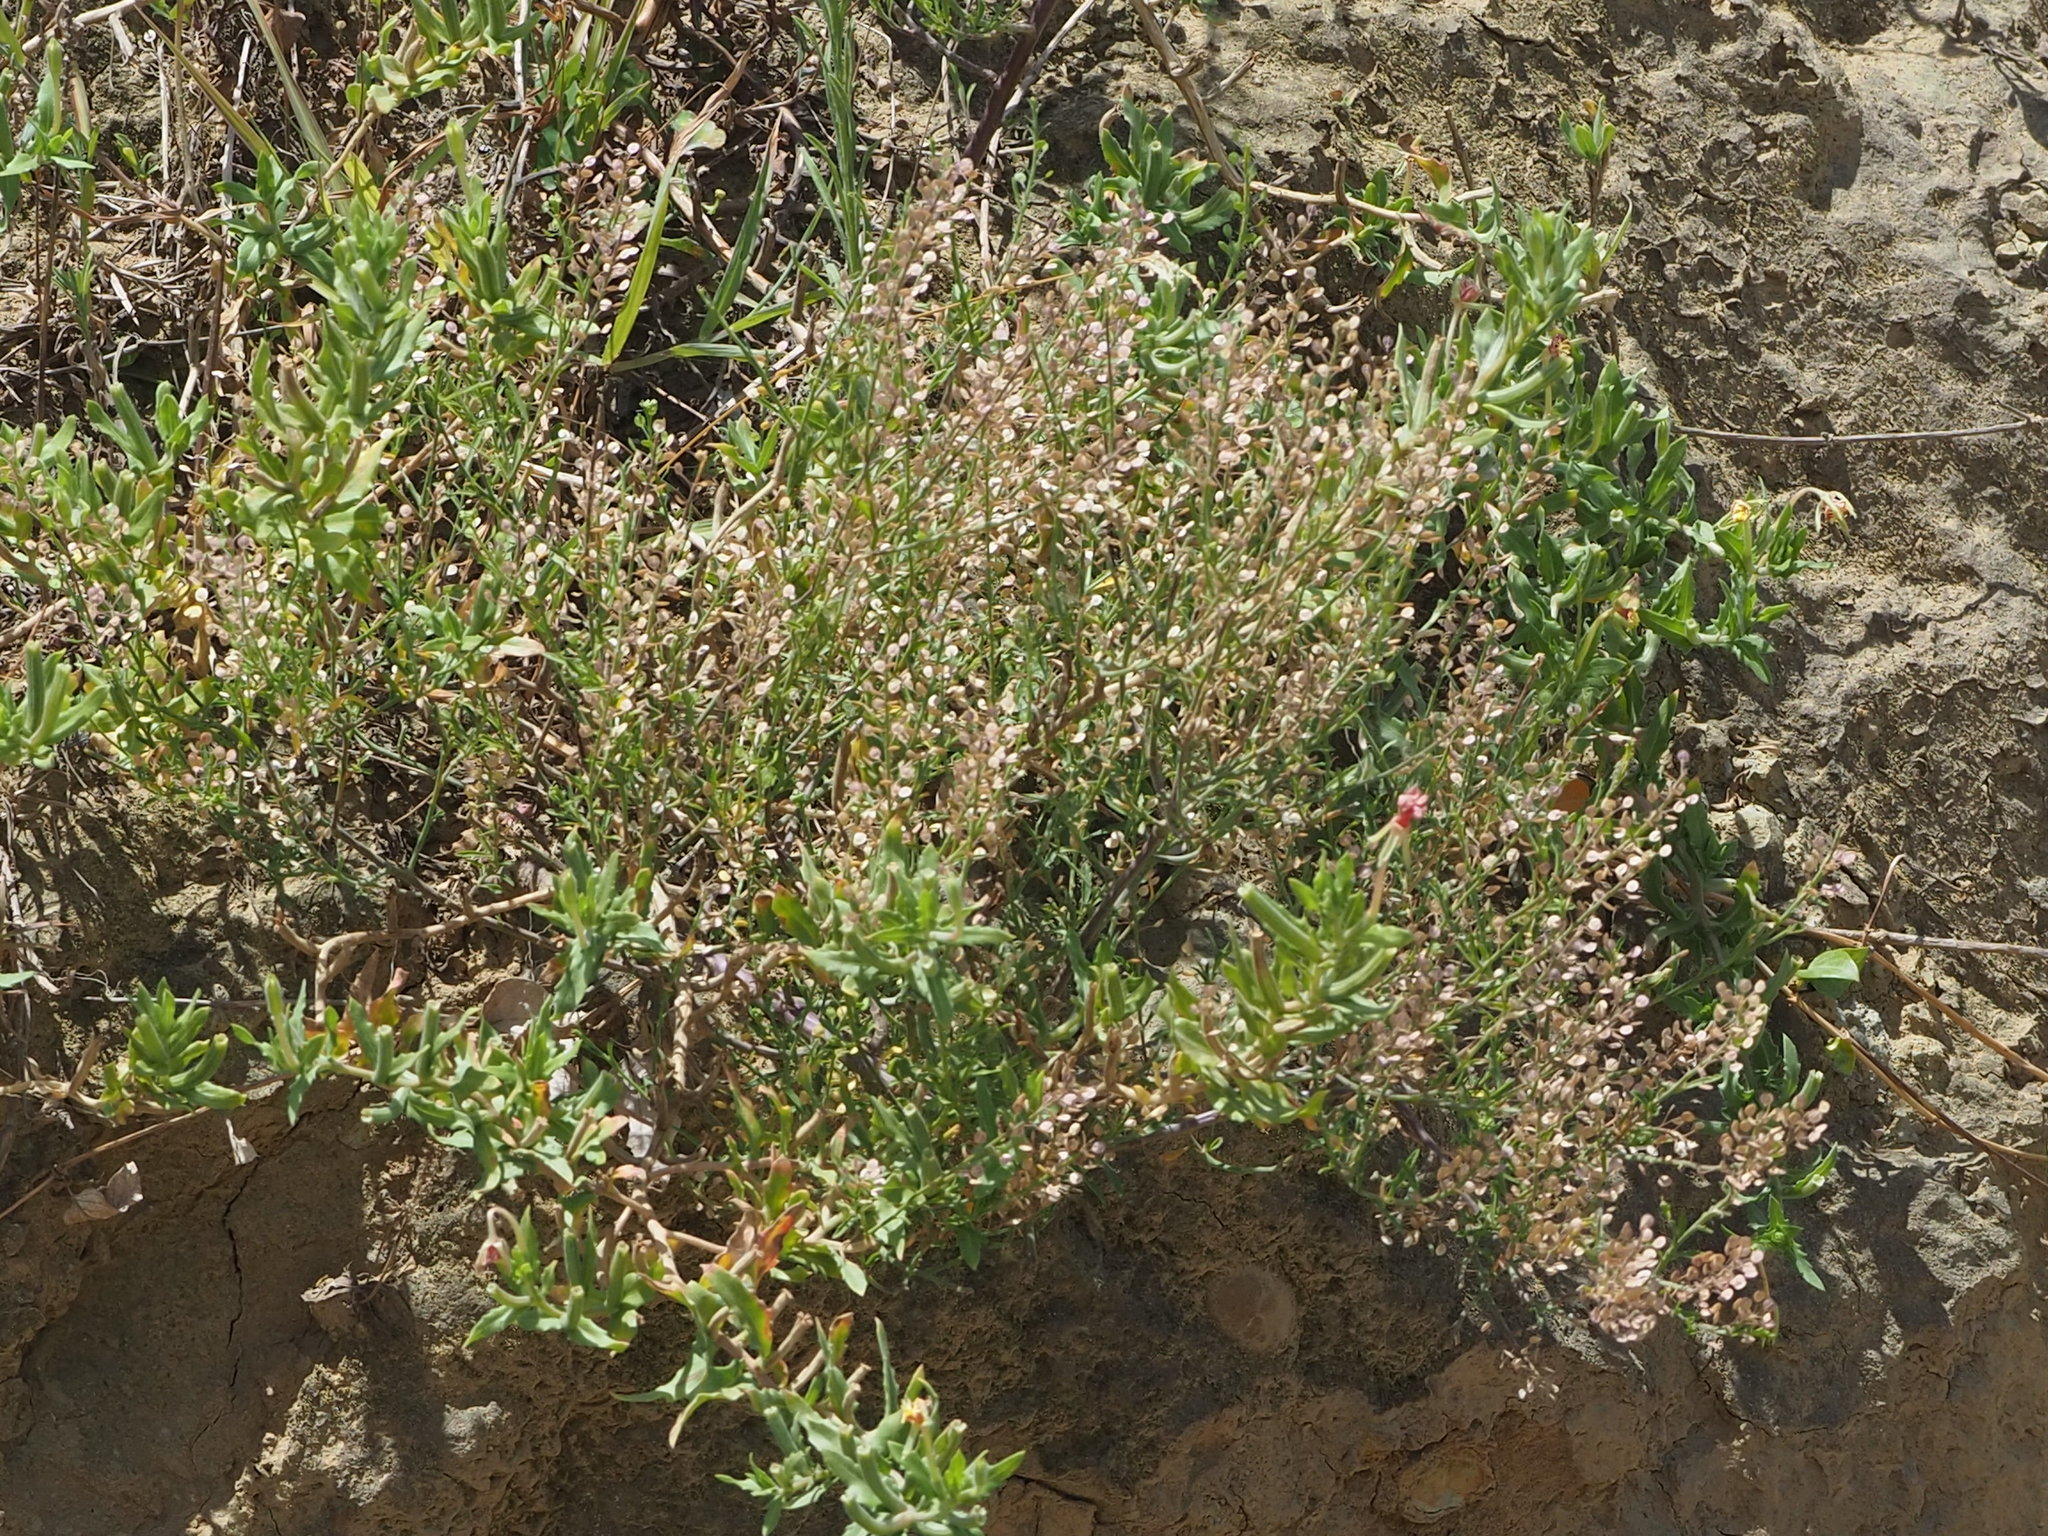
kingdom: Plantae
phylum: Tracheophyta
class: Magnoliopsida
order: Brassicales
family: Brassicaceae
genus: Lepidium
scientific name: Lepidium virginicum
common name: Least pepperwort
